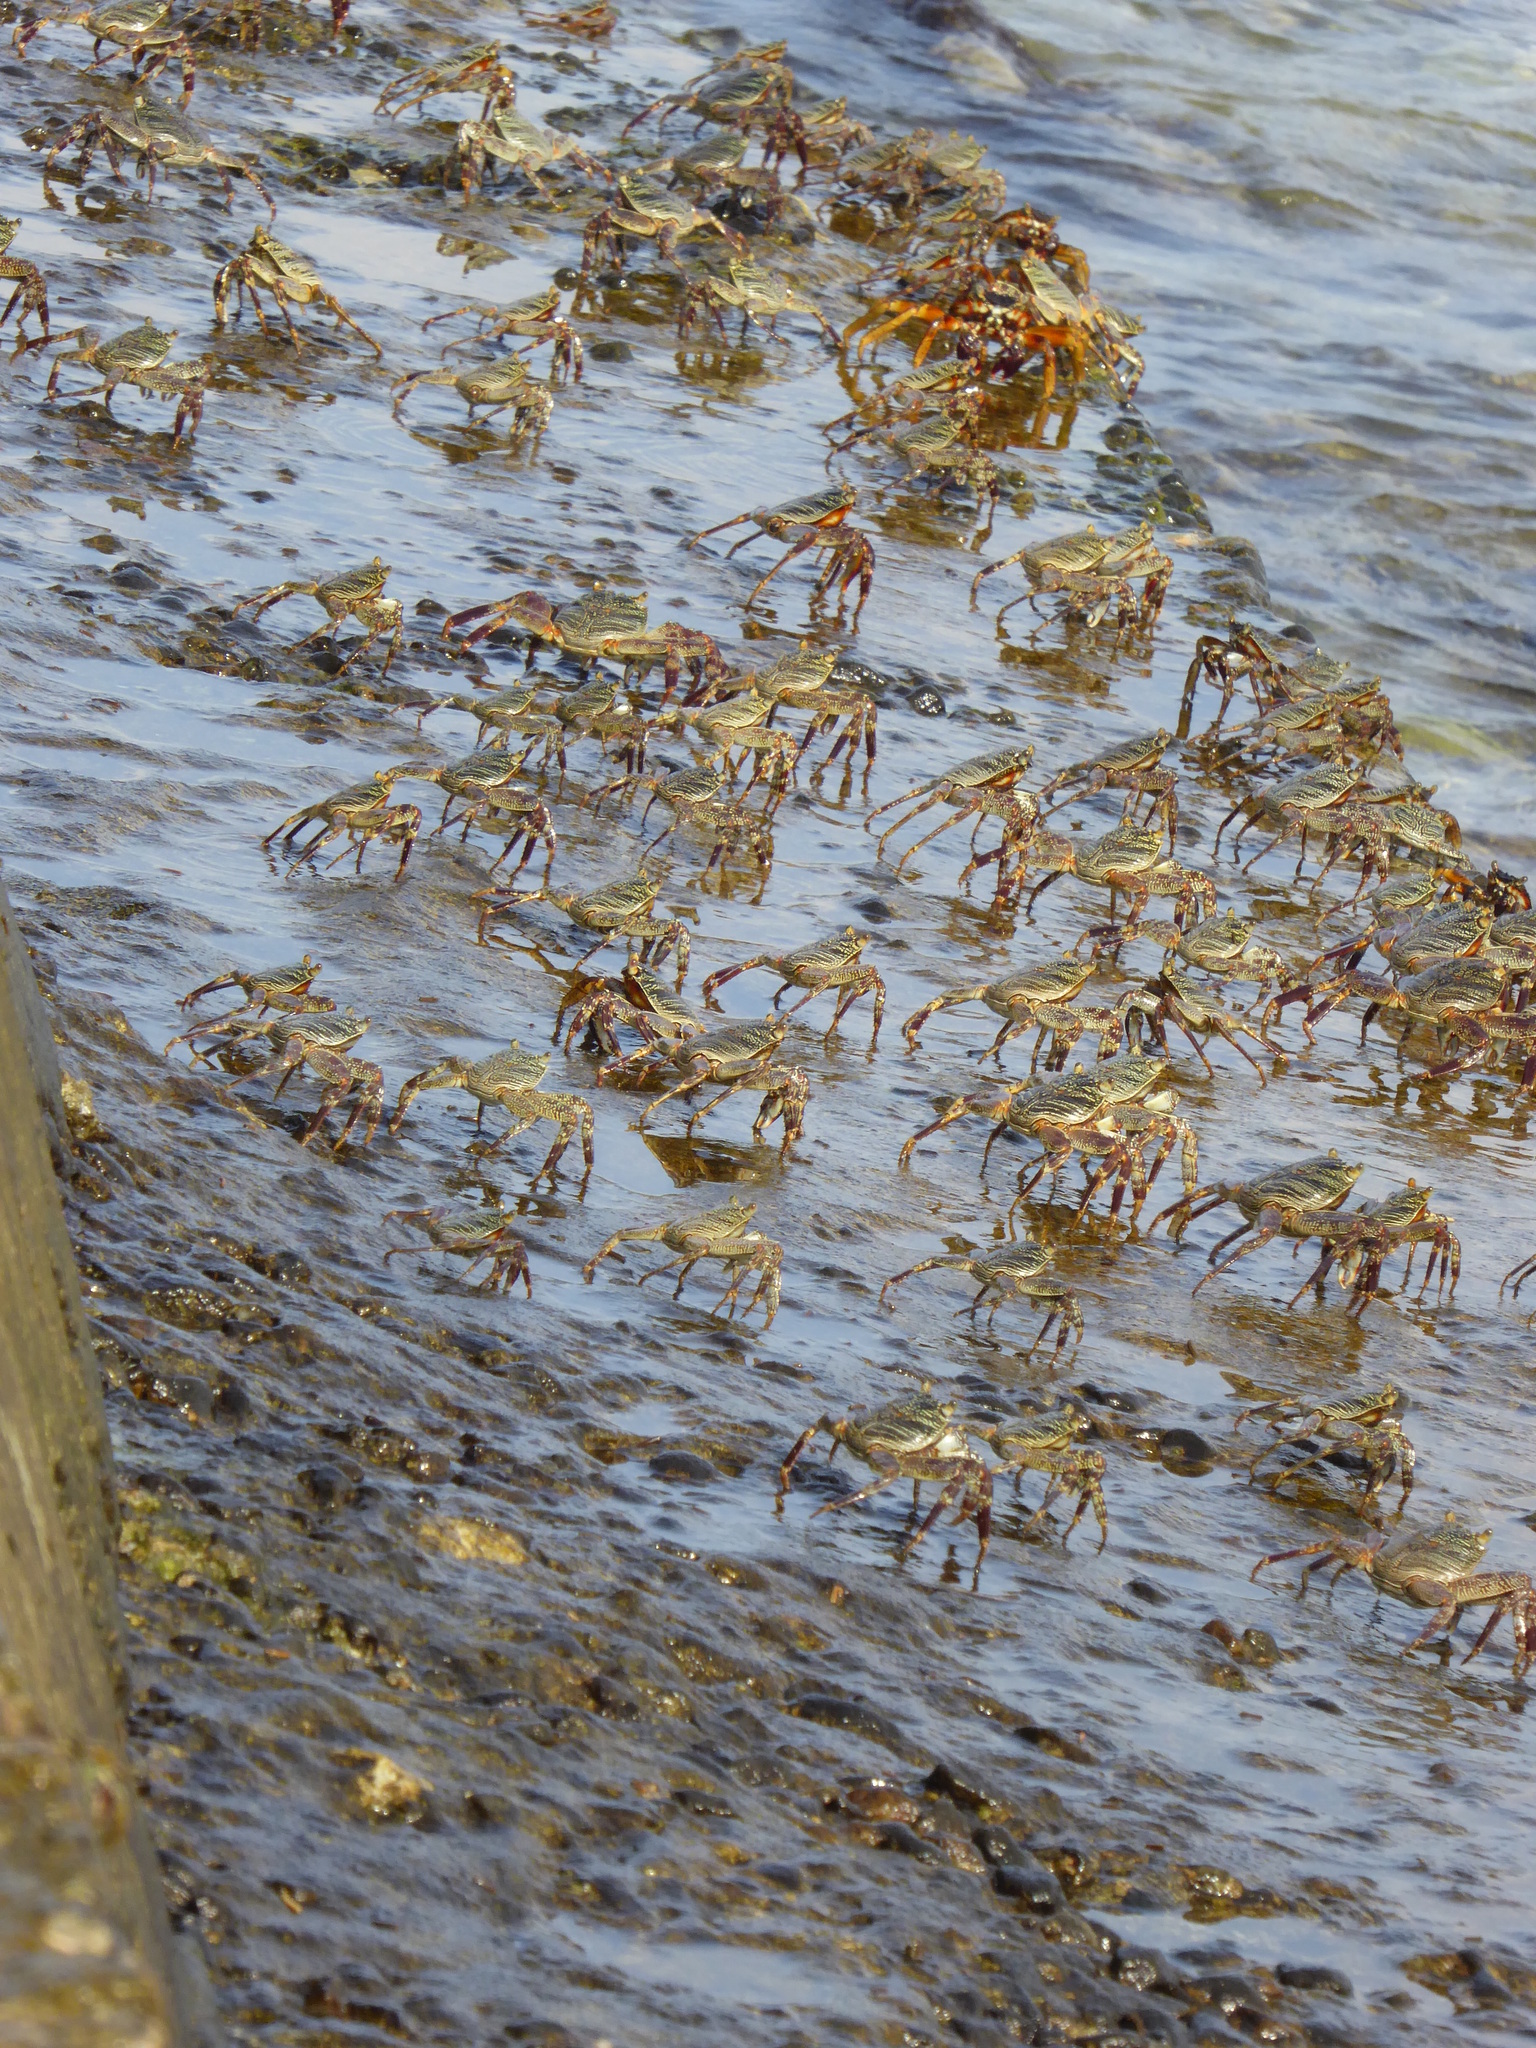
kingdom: Animalia
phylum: Arthropoda
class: Malacostraca
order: Decapoda
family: Grapsidae
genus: Grapsus
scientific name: Grapsus albolineatus
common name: Mottled lightfoot crab
